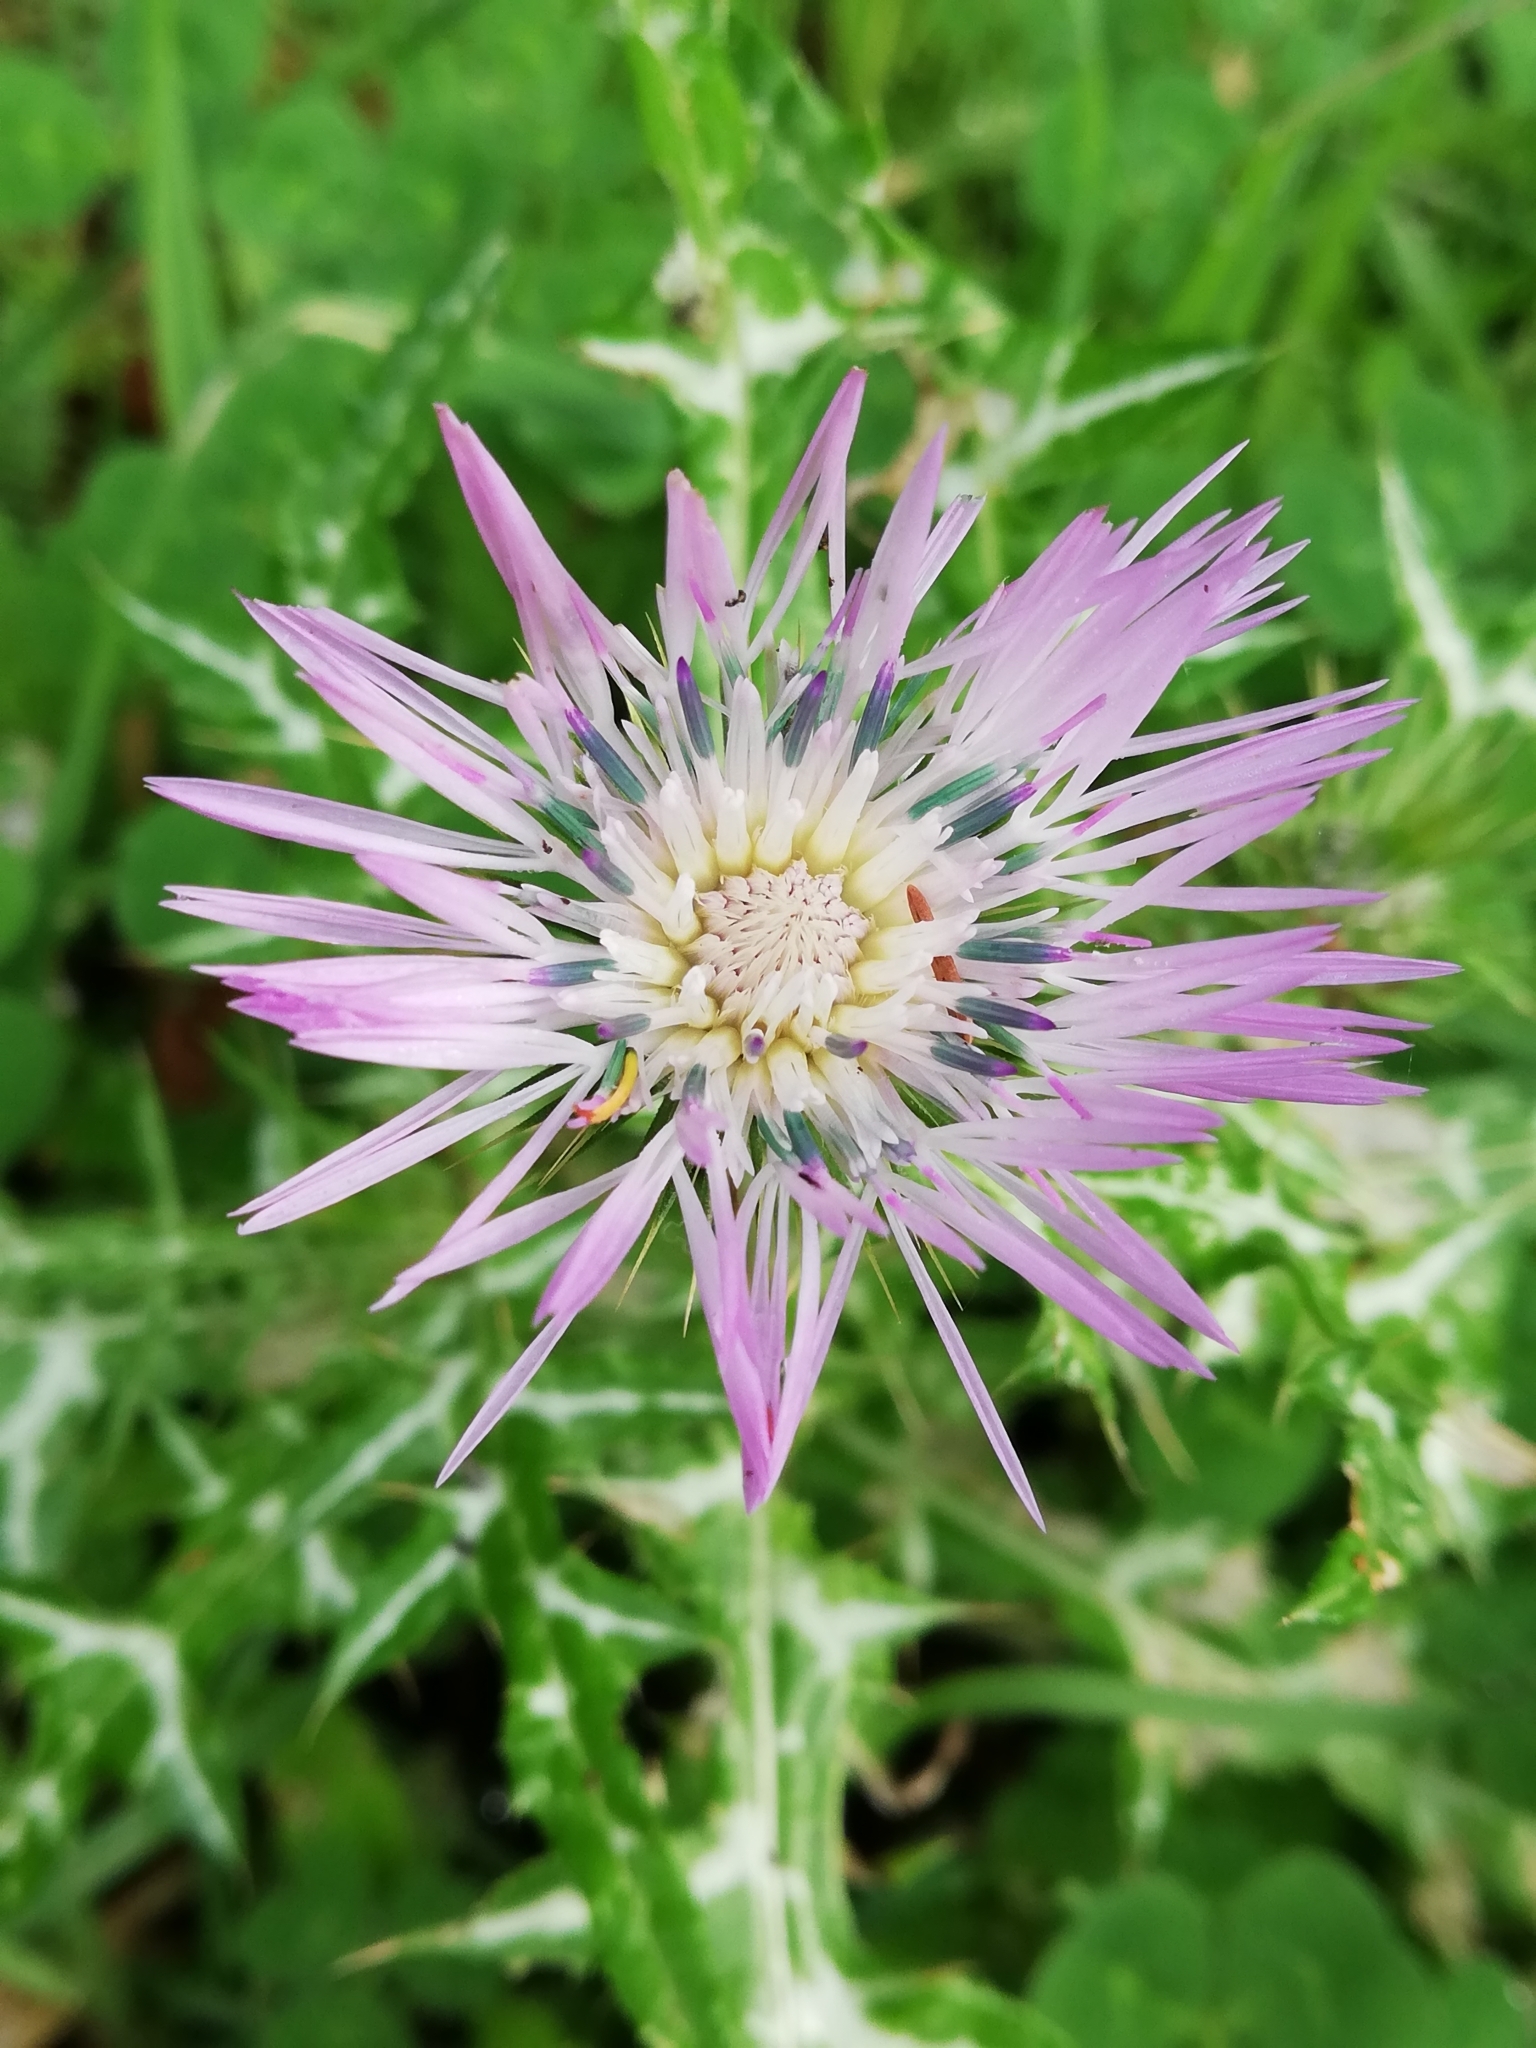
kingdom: Plantae
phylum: Tracheophyta
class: Magnoliopsida
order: Asterales
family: Asteraceae
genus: Galactites
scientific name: Galactites tomentosa
